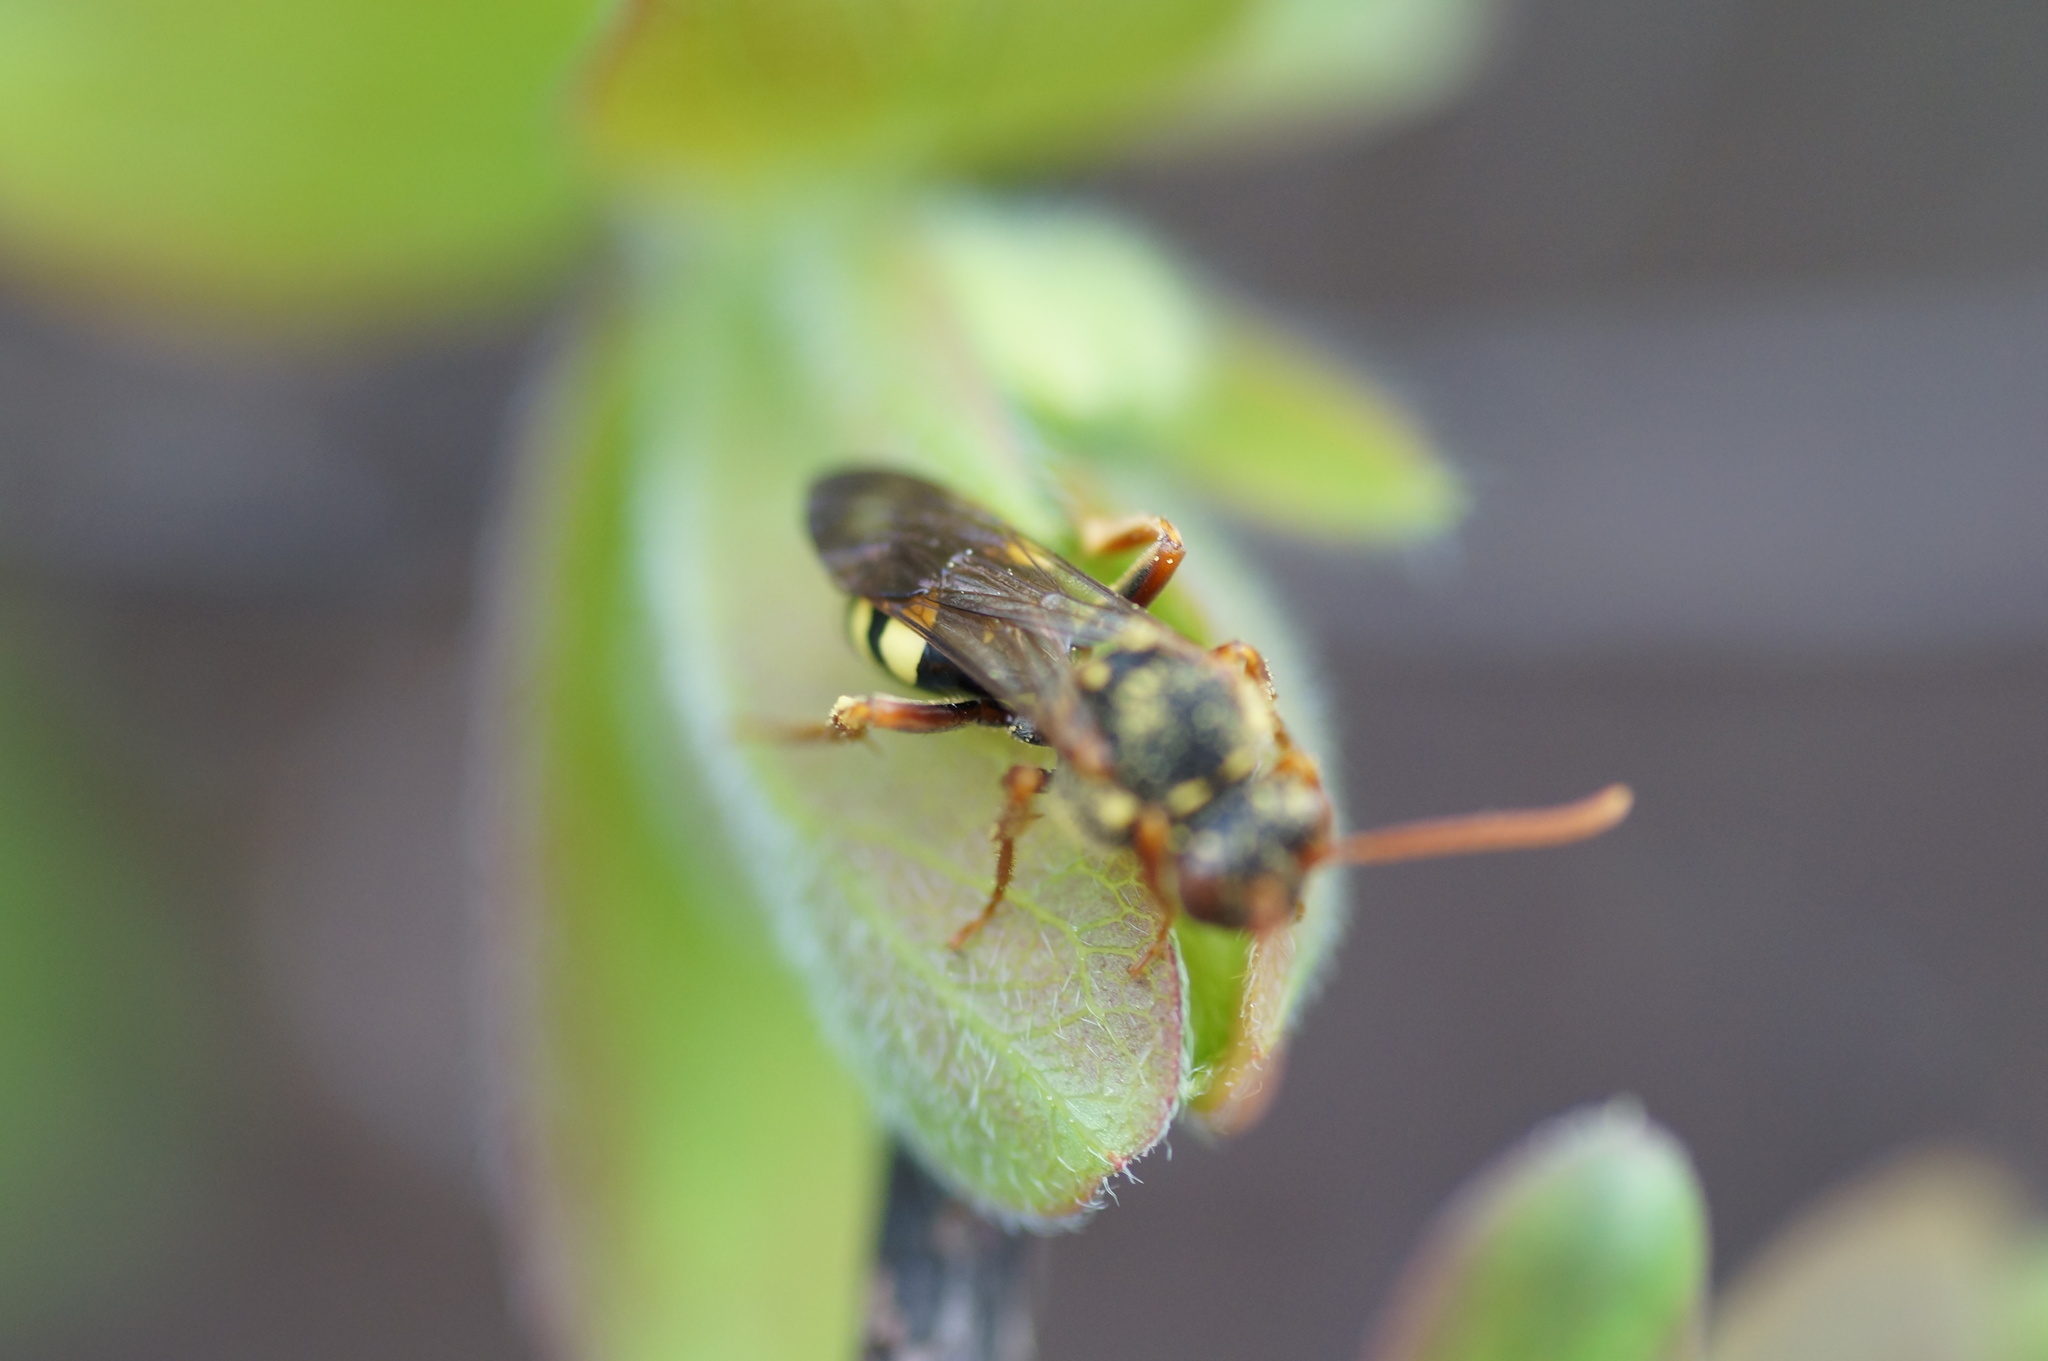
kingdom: Animalia
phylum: Arthropoda
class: Insecta
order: Hymenoptera
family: Apidae
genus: Nomada
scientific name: Nomada
